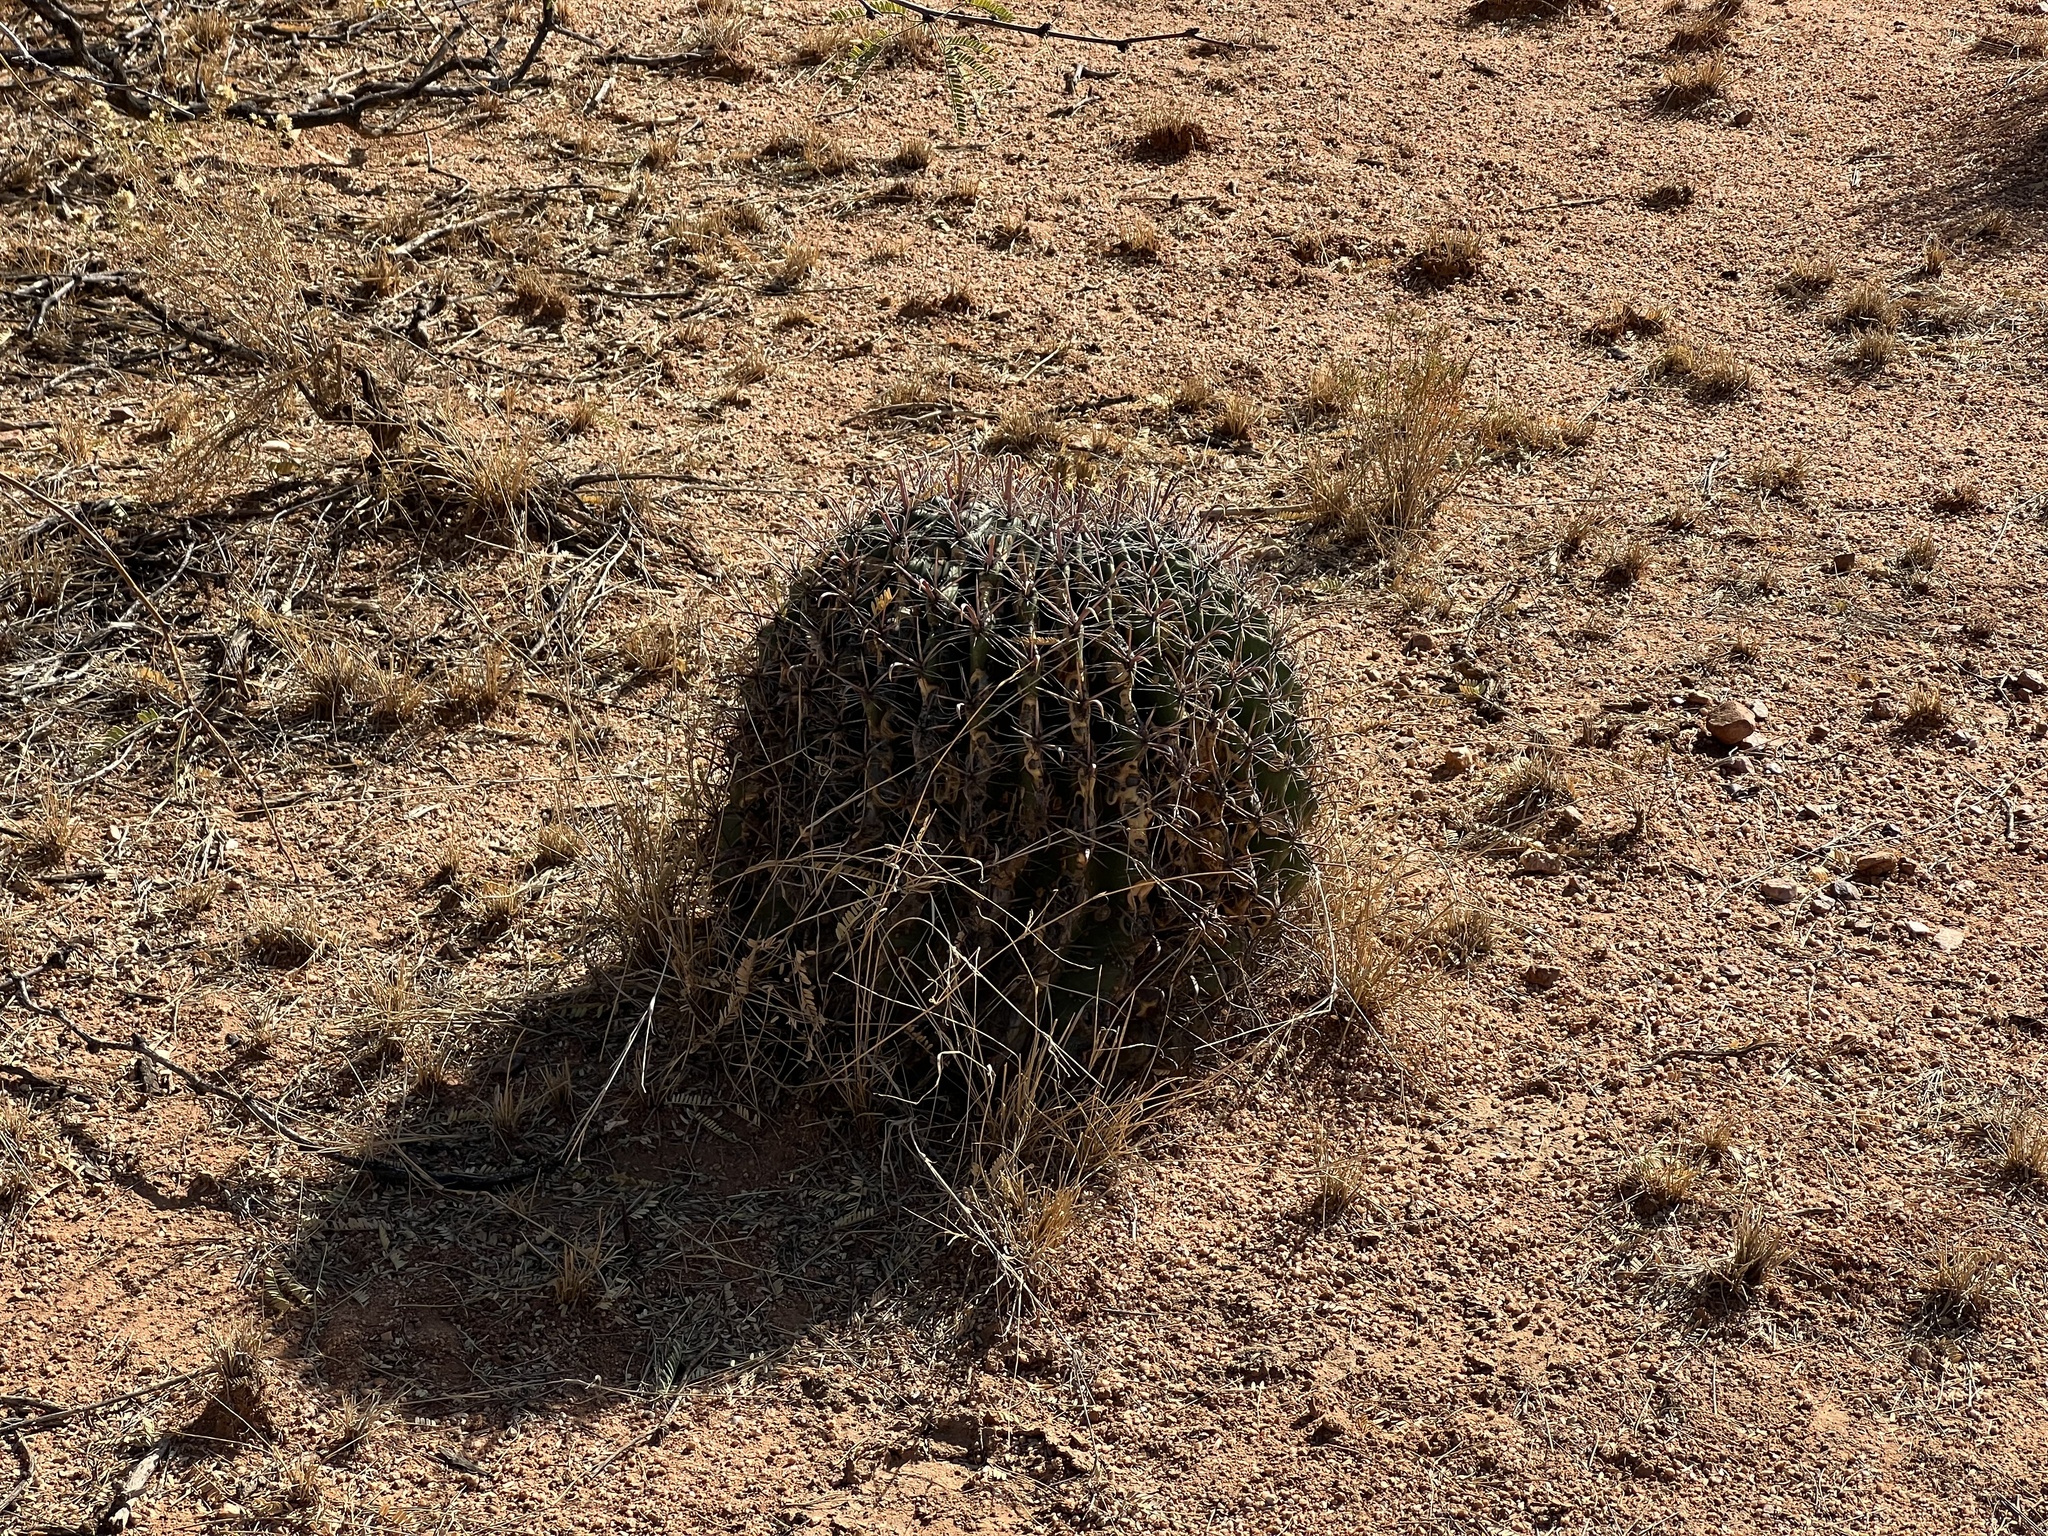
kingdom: Plantae
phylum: Tracheophyta
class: Magnoliopsida
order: Caryophyllales
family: Cactaceae
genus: Ferocactus
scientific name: Ferocactus wislizeni
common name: Candy barrel cactus
